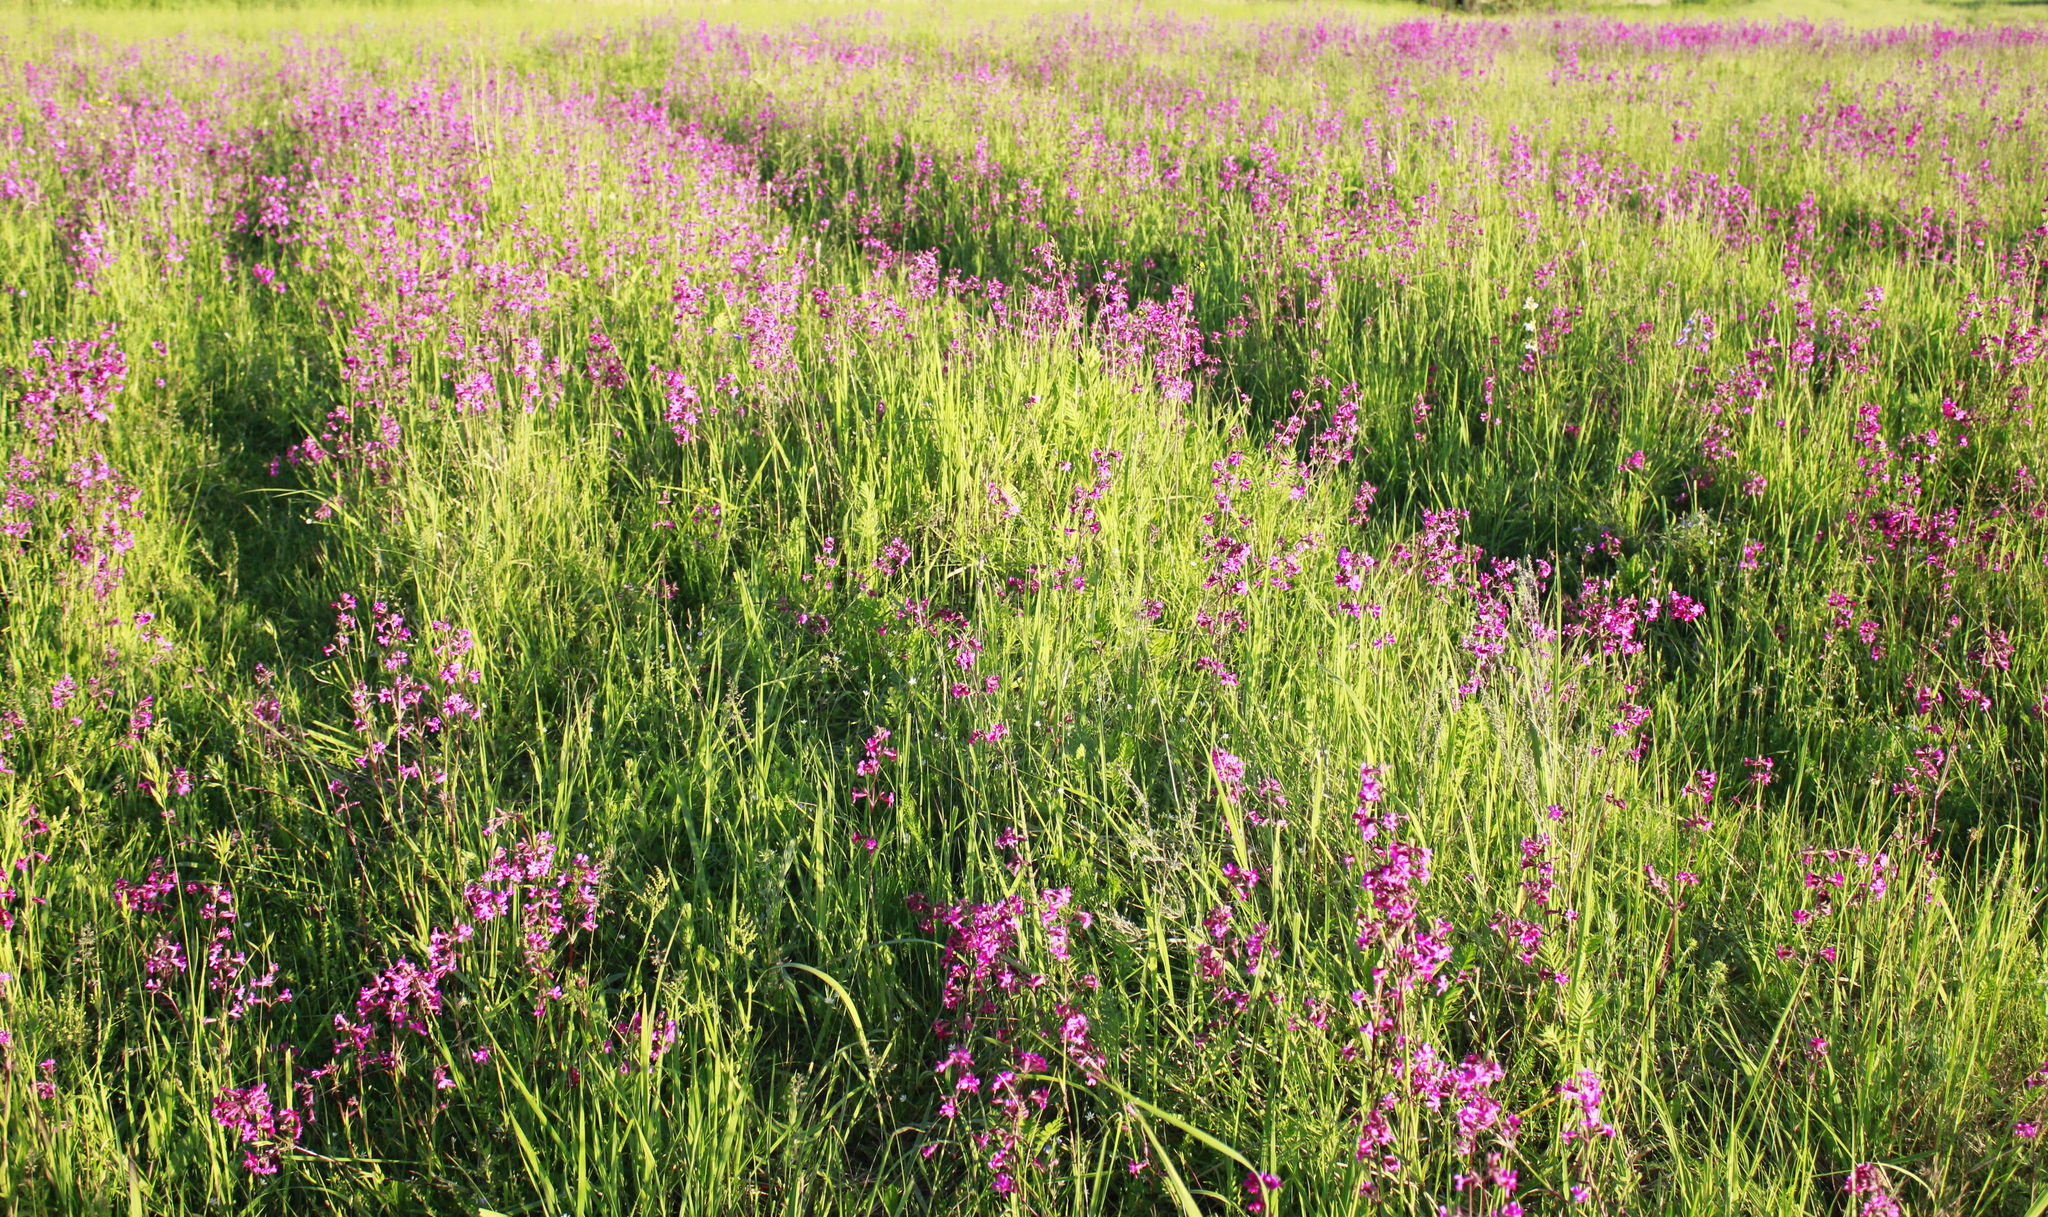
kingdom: Plantae
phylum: Tracheophyta
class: Magnoliopsida
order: Caryophyllales
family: Caryophyllaceae
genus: Viscaria
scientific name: Viscaria vulgaris
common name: Clammy campion
